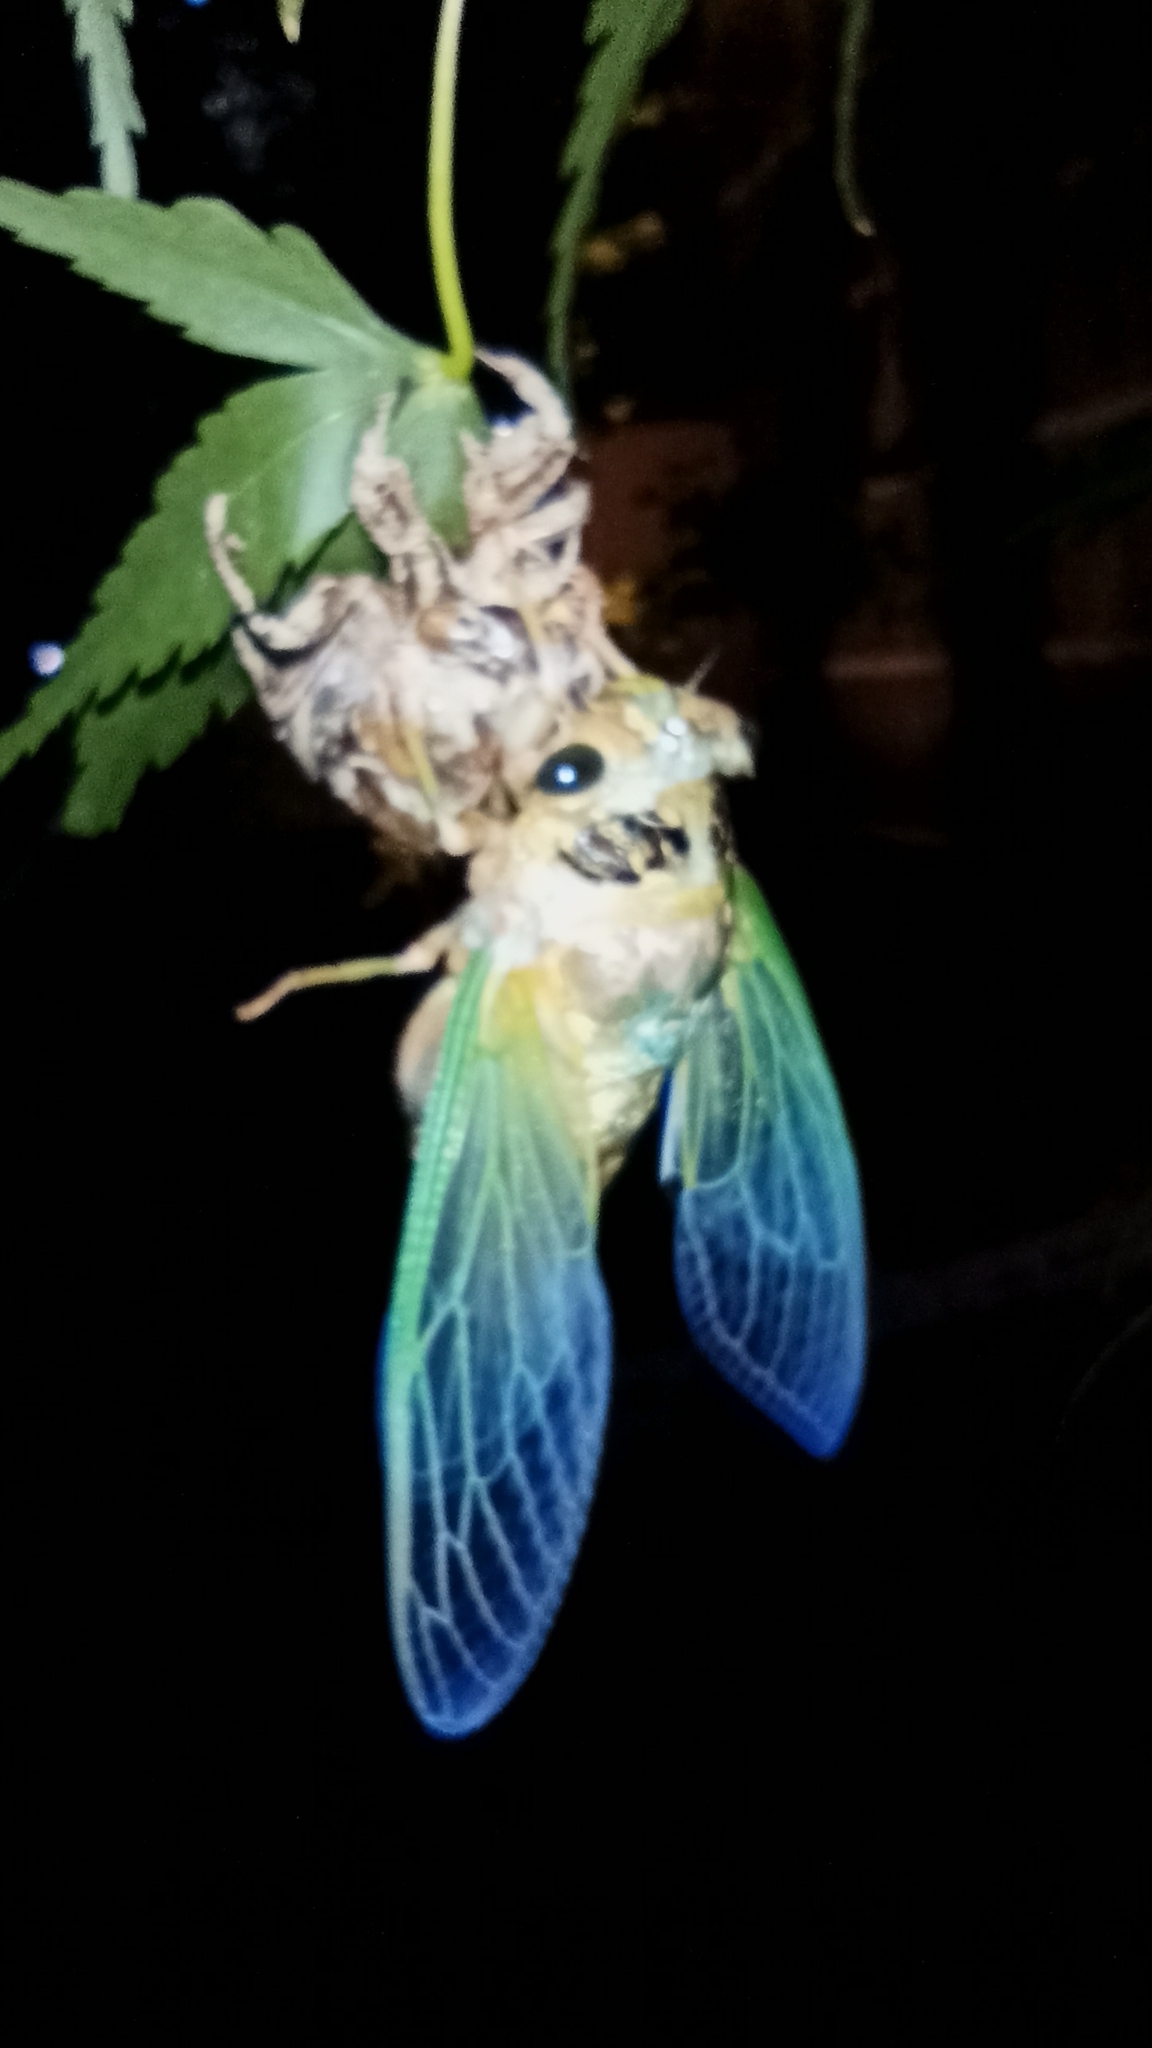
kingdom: Animalia
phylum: Arthropoda
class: Insecta
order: Hemiptera
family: Cicadidae
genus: Cryptotympana
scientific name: Cryptotympana facialis
